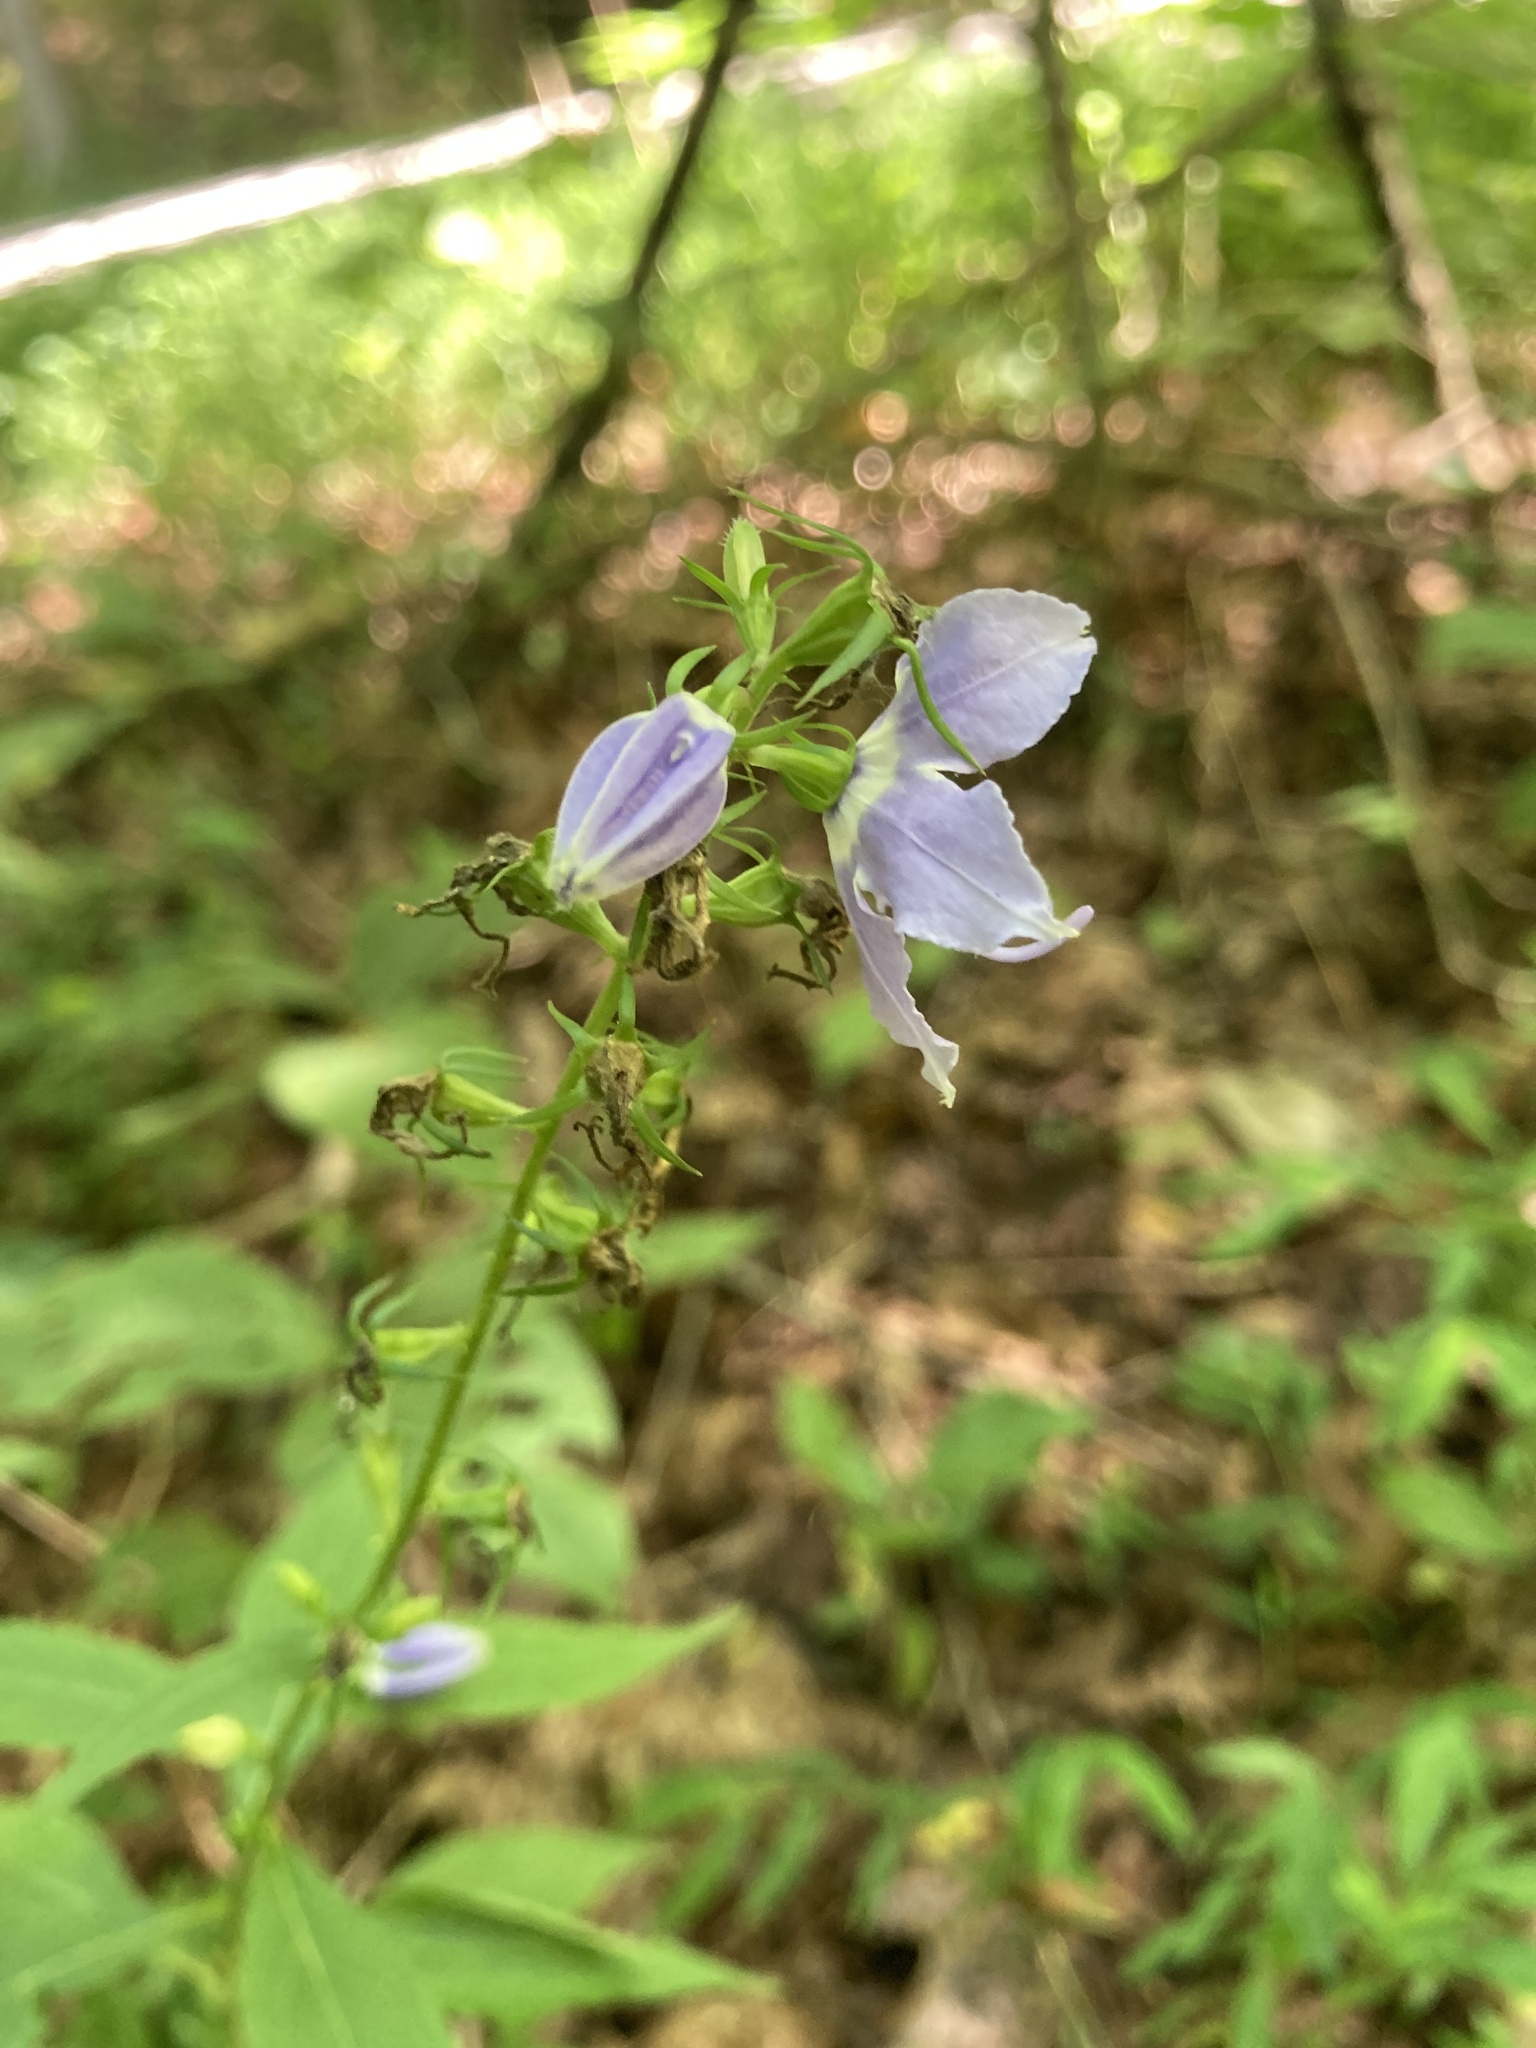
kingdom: Plantae
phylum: Tracheophyta
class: Magnoliopsida
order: Asterales
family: Campanulaceae
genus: Campanulastrum
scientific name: Campanulastrum americanum
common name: American bellflower
